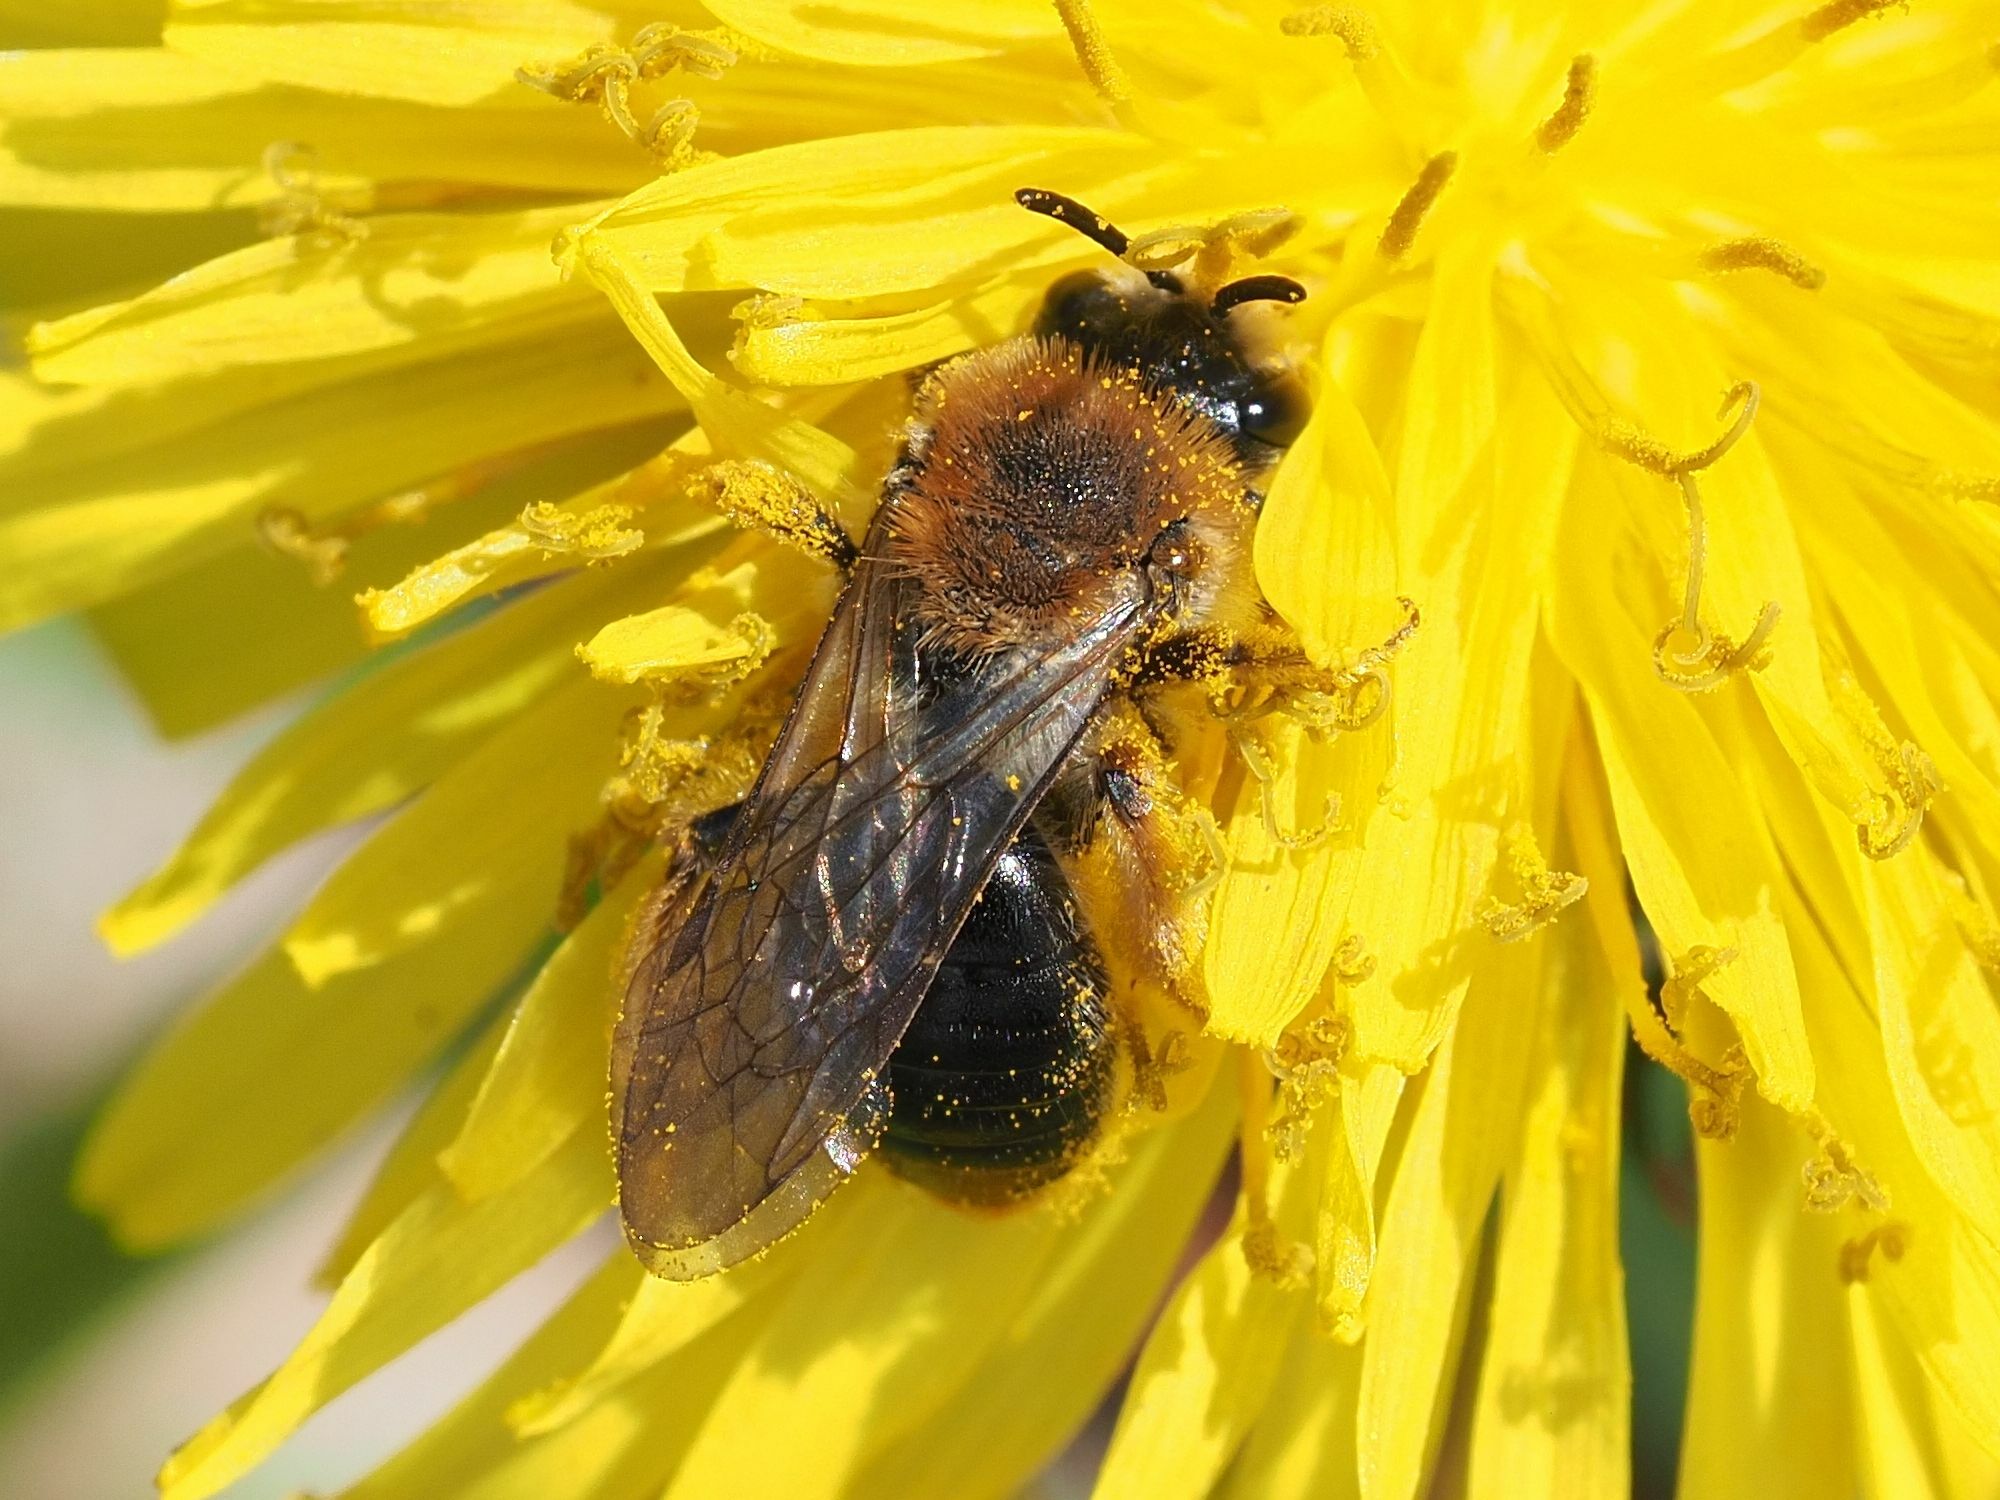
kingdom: Animalia
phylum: Arthropoda
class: Insecta
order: Hymenoptera
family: Andrenidae
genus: Andrena
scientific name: Andrena haemorrhoa
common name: Early mining bee
